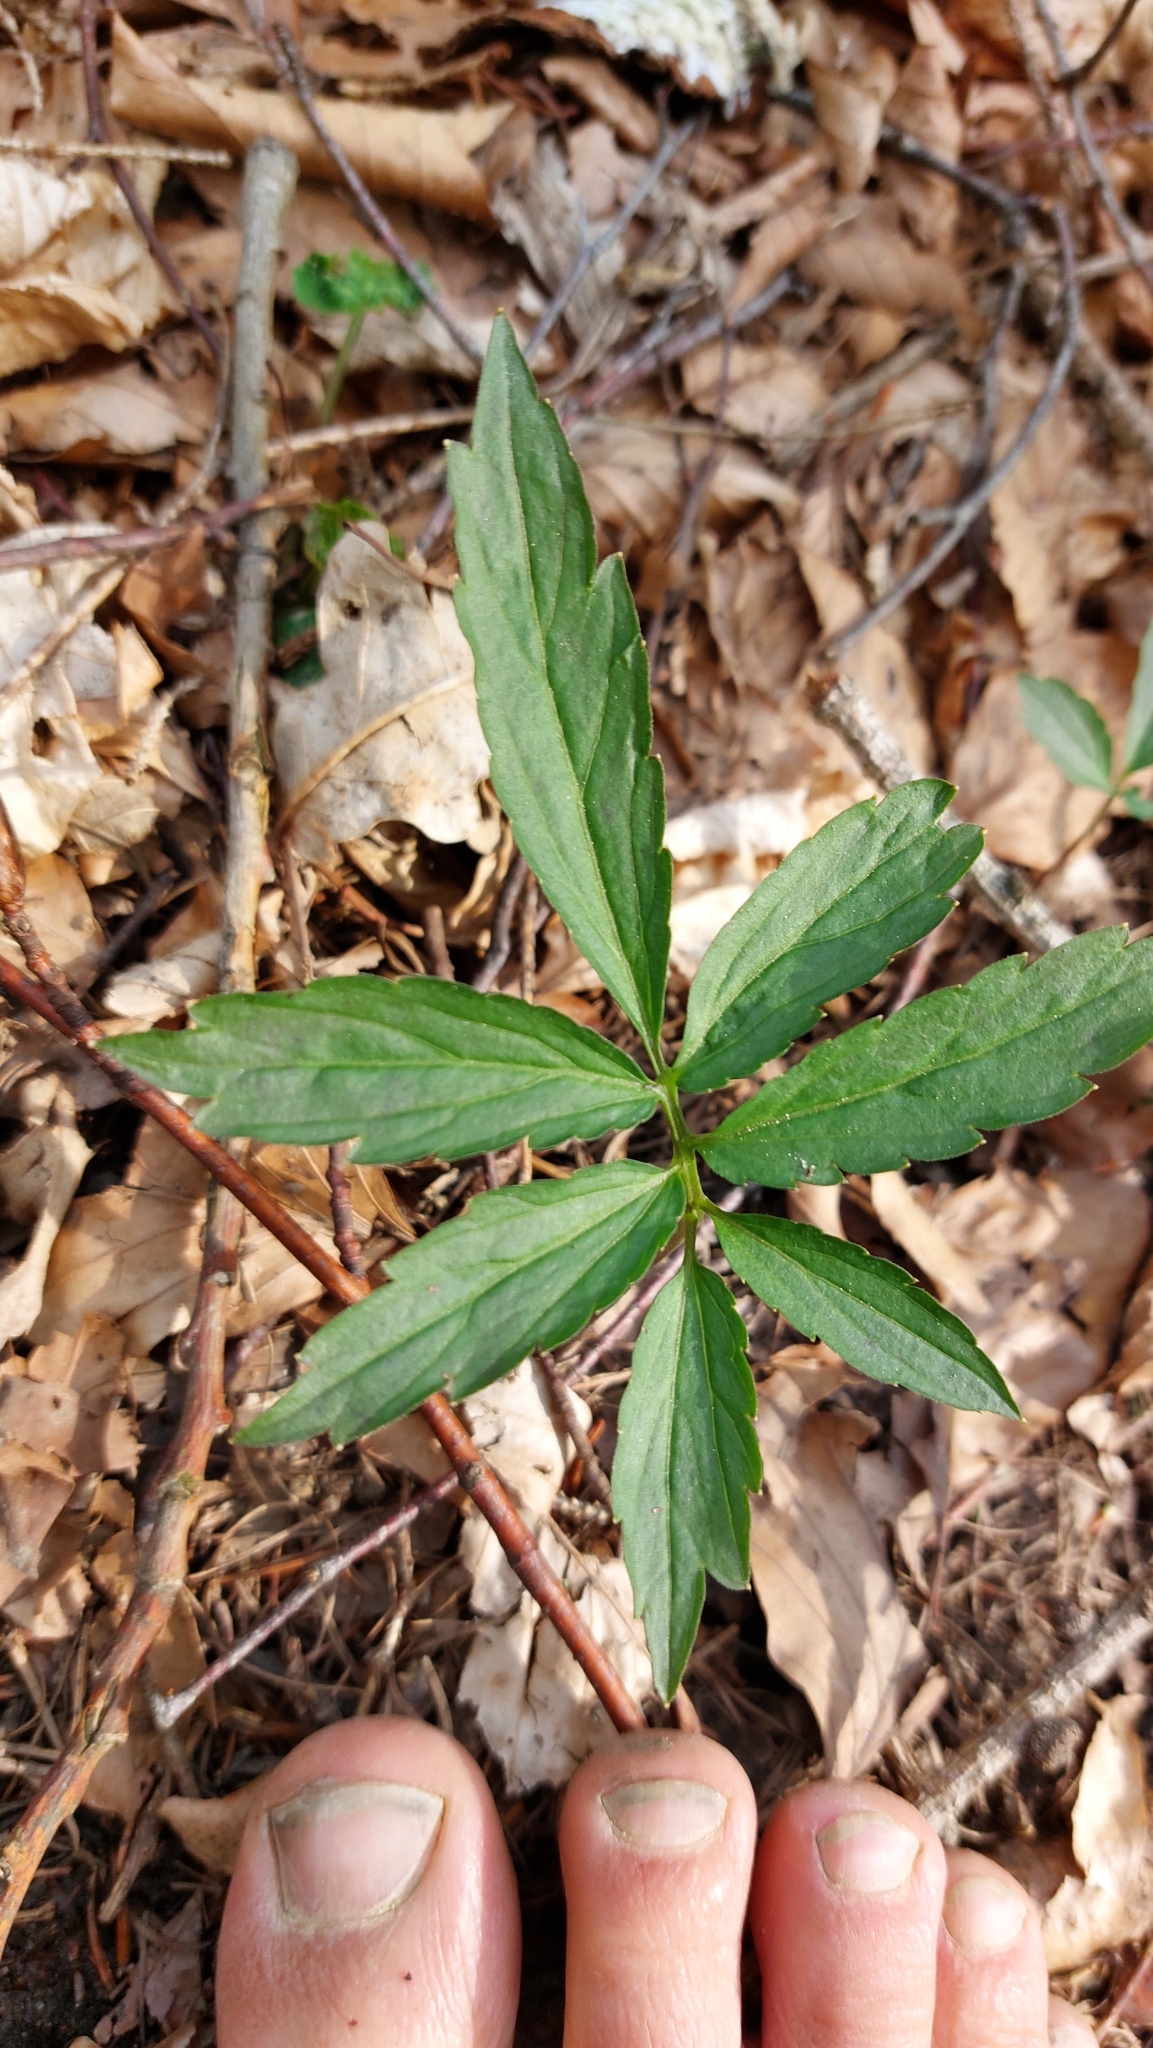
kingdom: Plantae
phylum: Tracheophyta
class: Magnoliopsida
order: Brassicales
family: Brassicaceae
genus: Cardamine
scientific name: Cardamine bulbifera
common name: Coralroot bittercress
